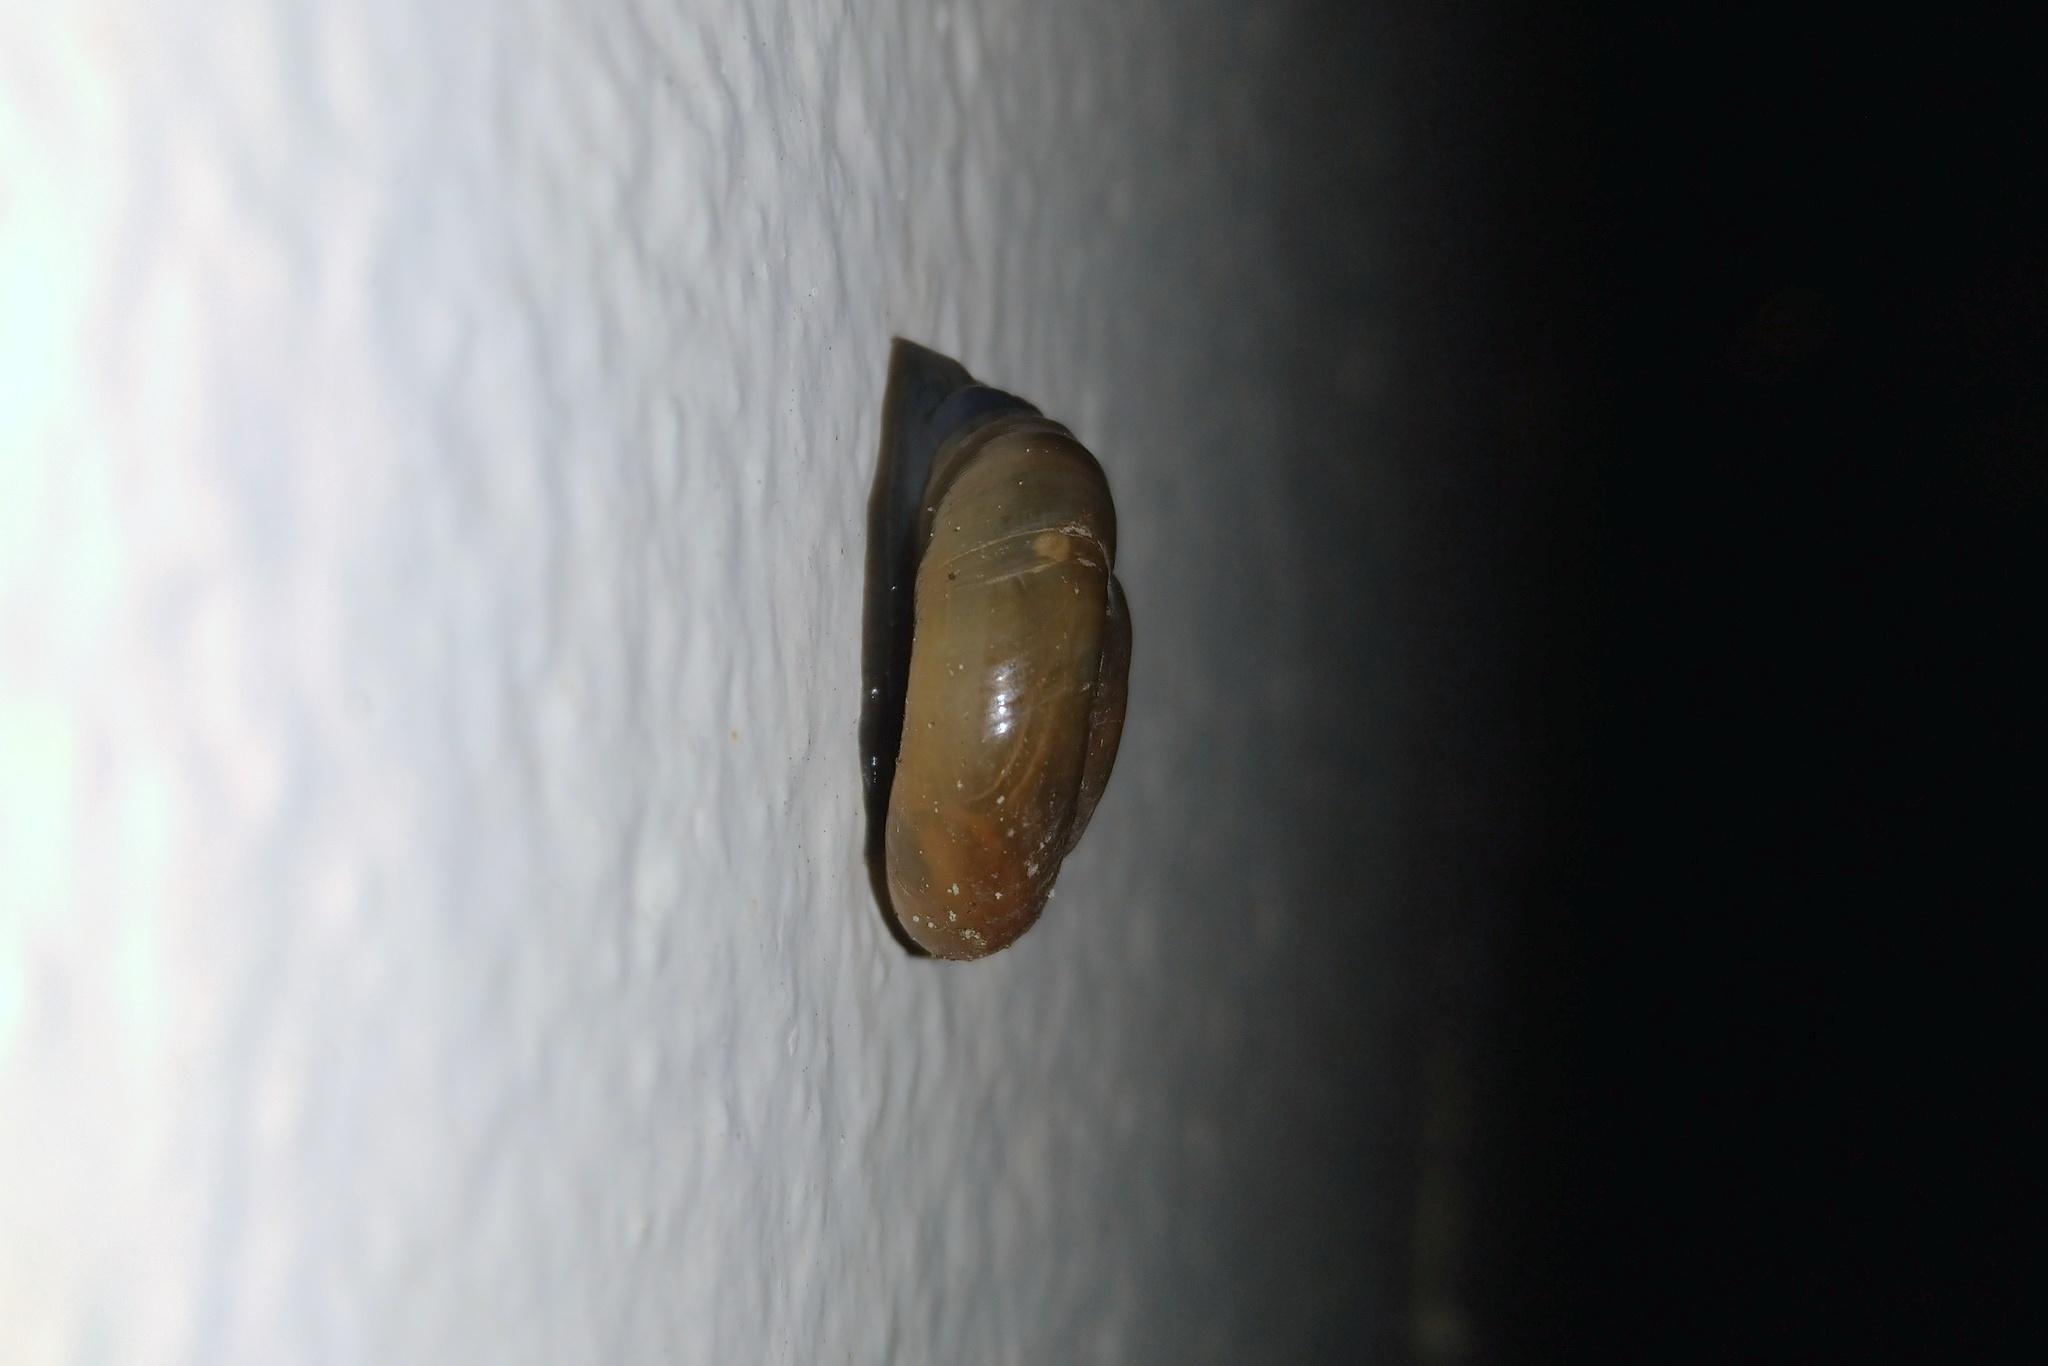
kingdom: Animalia
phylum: Mollusca
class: Gastropoda
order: Stylommatophora
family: Oxychilidae
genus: Oxychilus
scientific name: Oxychilus
